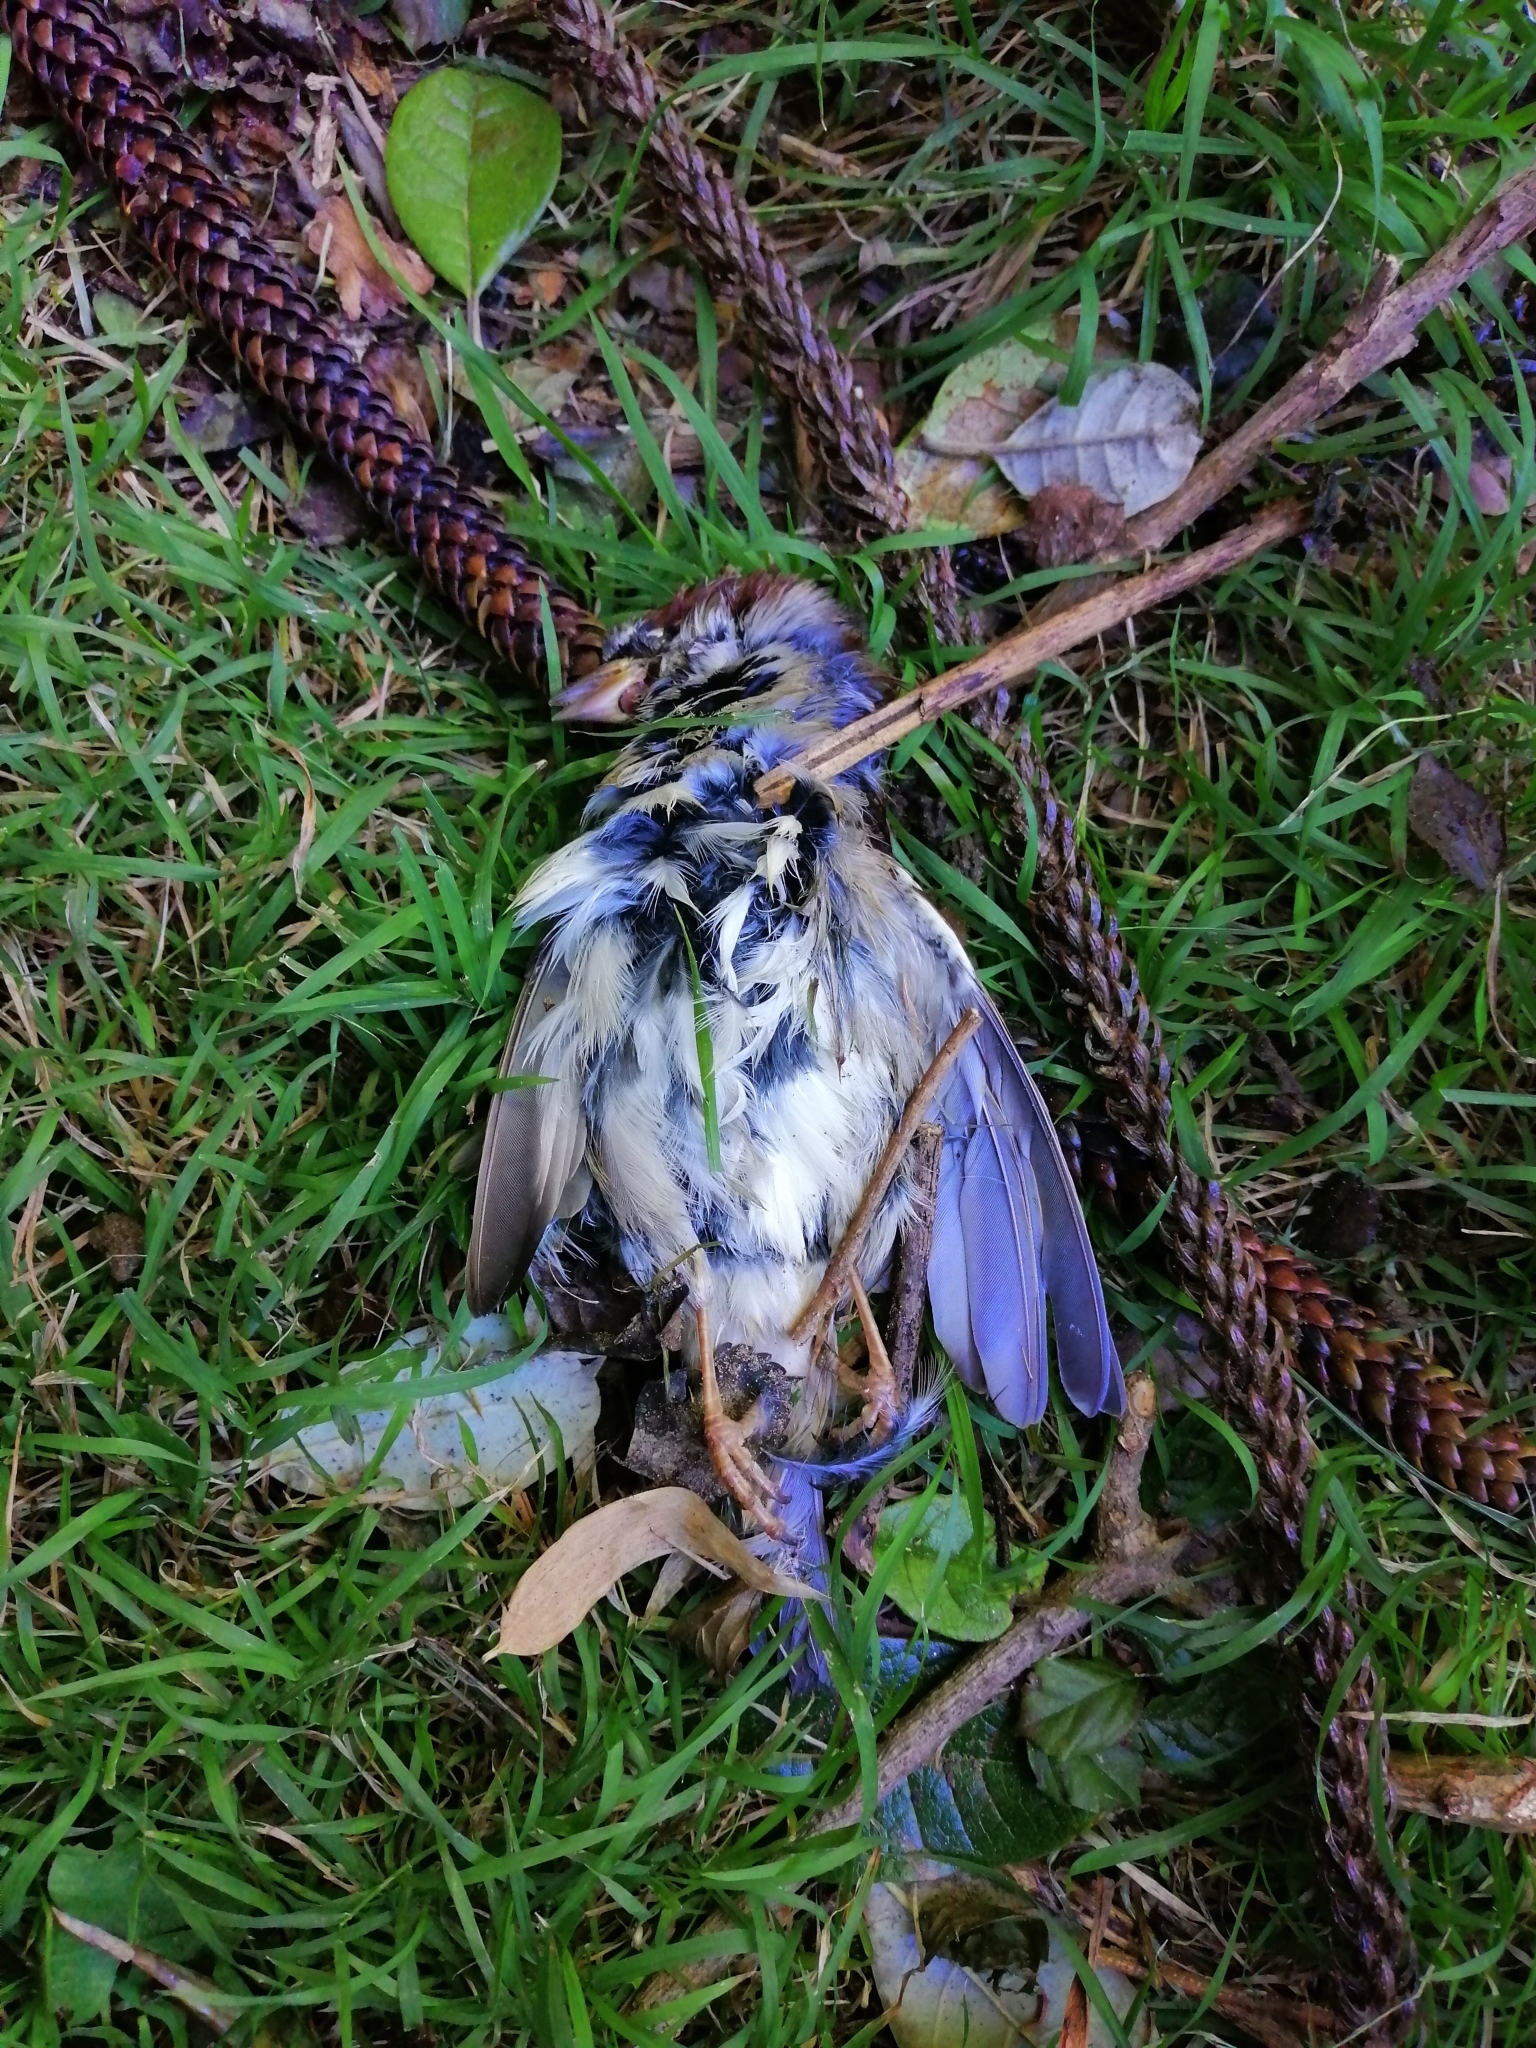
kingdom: Animalia
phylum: Chordata
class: Aves
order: Passeriformes
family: Passeridae
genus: Passer
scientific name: Passer domesticus
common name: House sparrow
